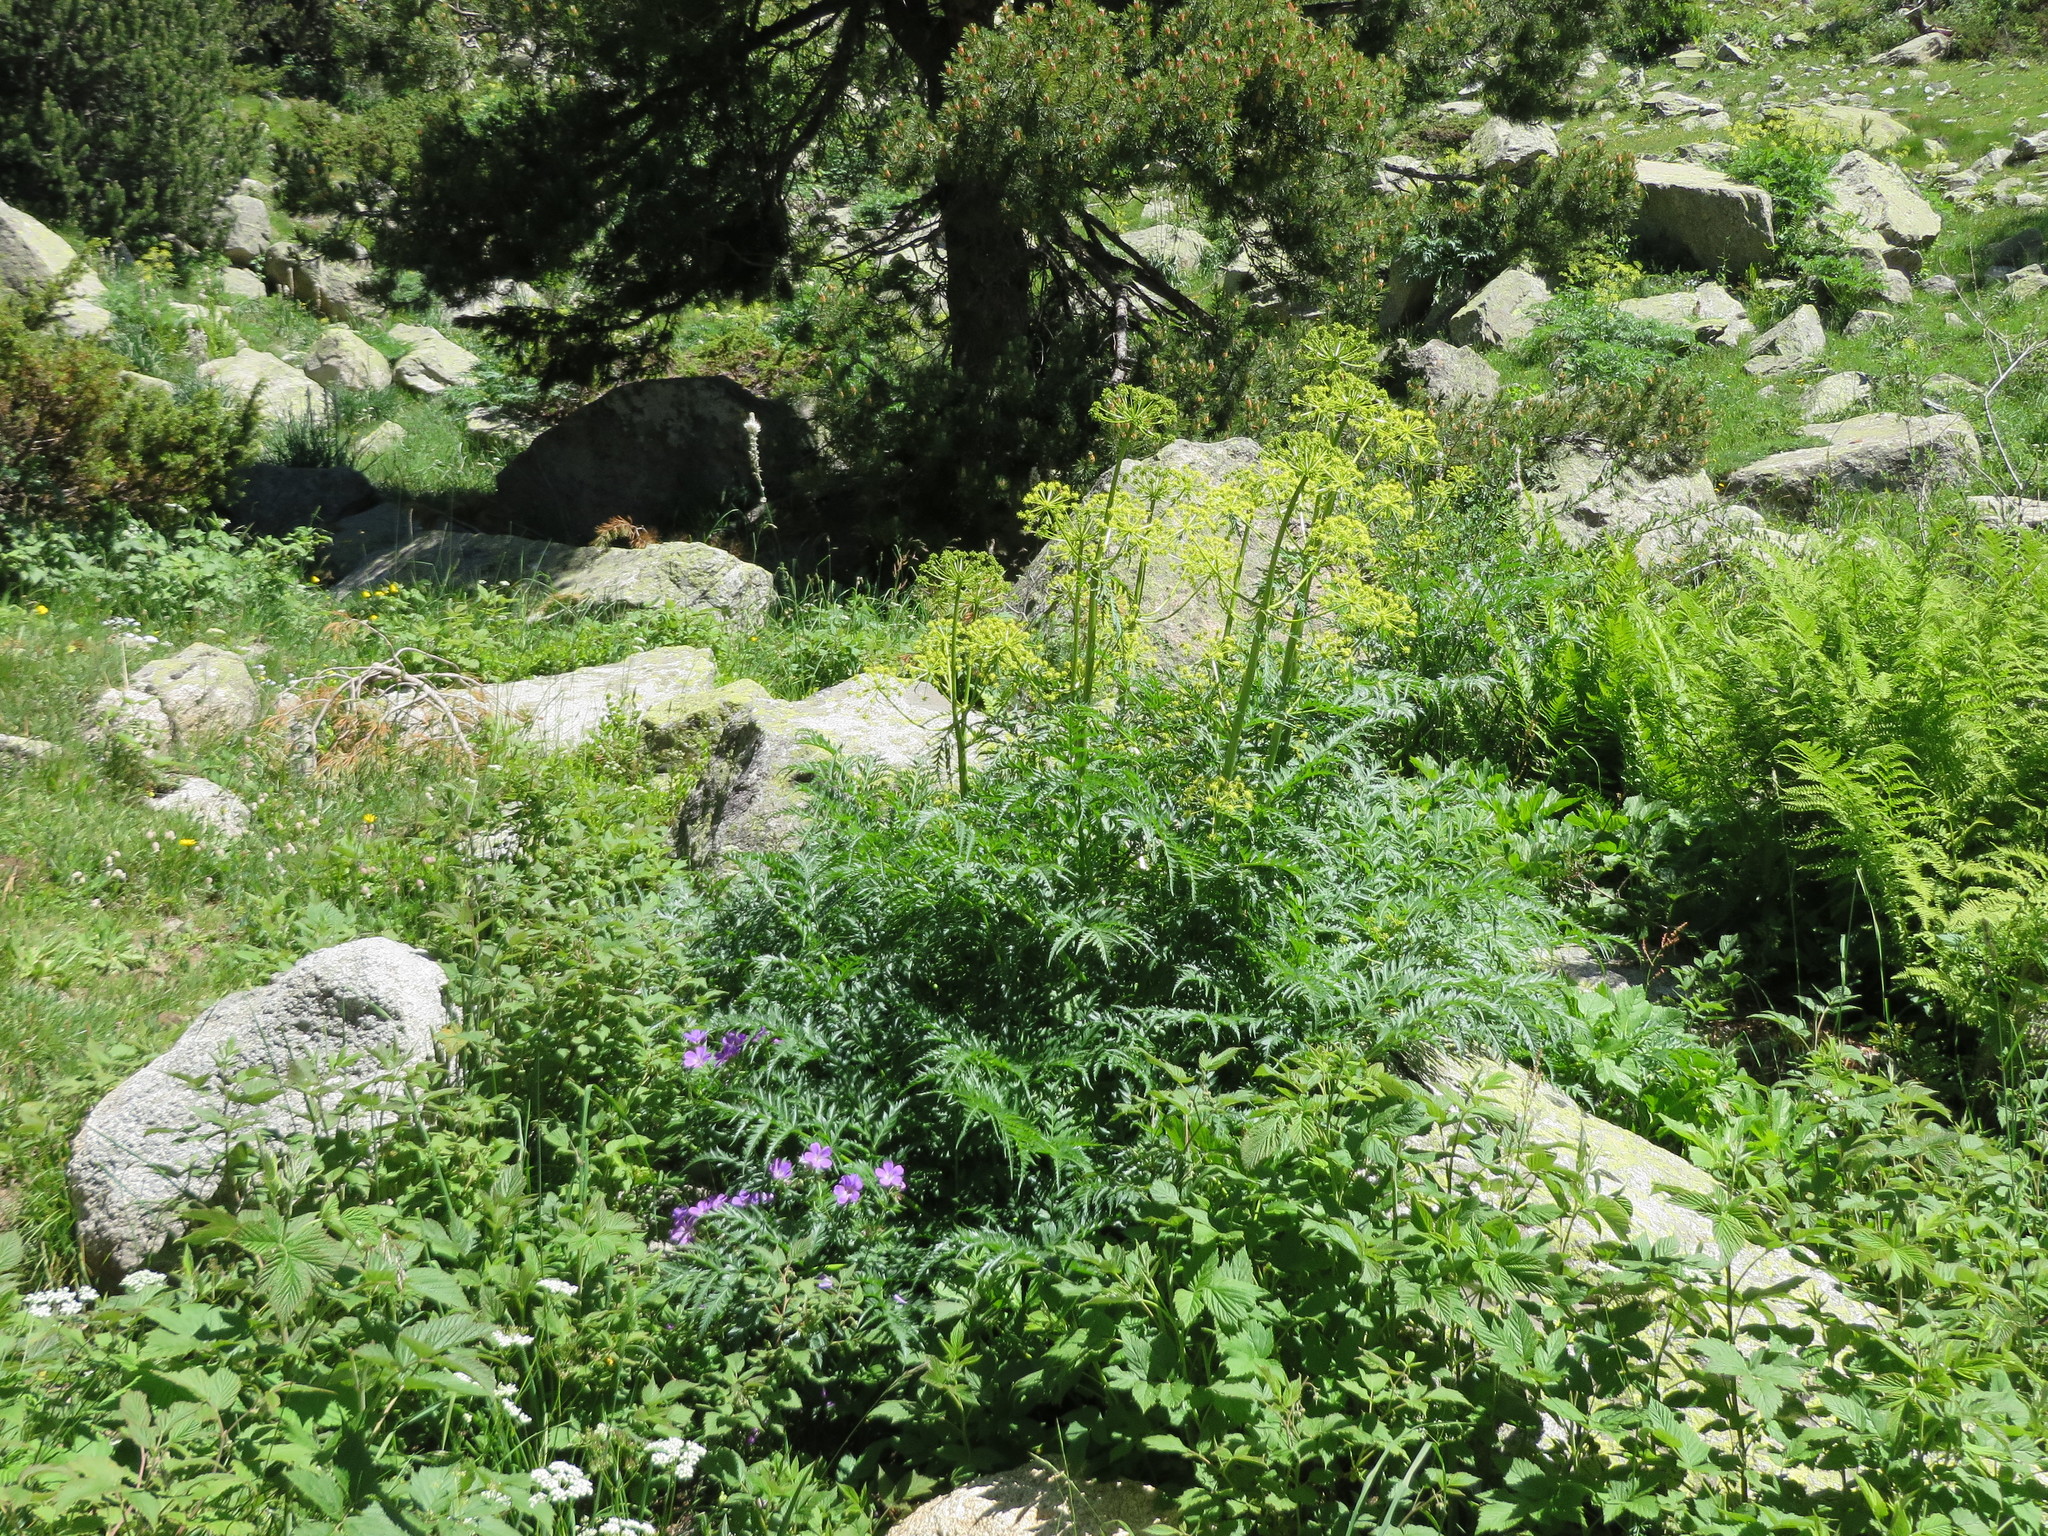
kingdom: Plantae
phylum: Tracheophyta
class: Magnoliopsida
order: Apiales
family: Apiaceae
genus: Molopospermum
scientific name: Molopospermum peloponnesiacum
